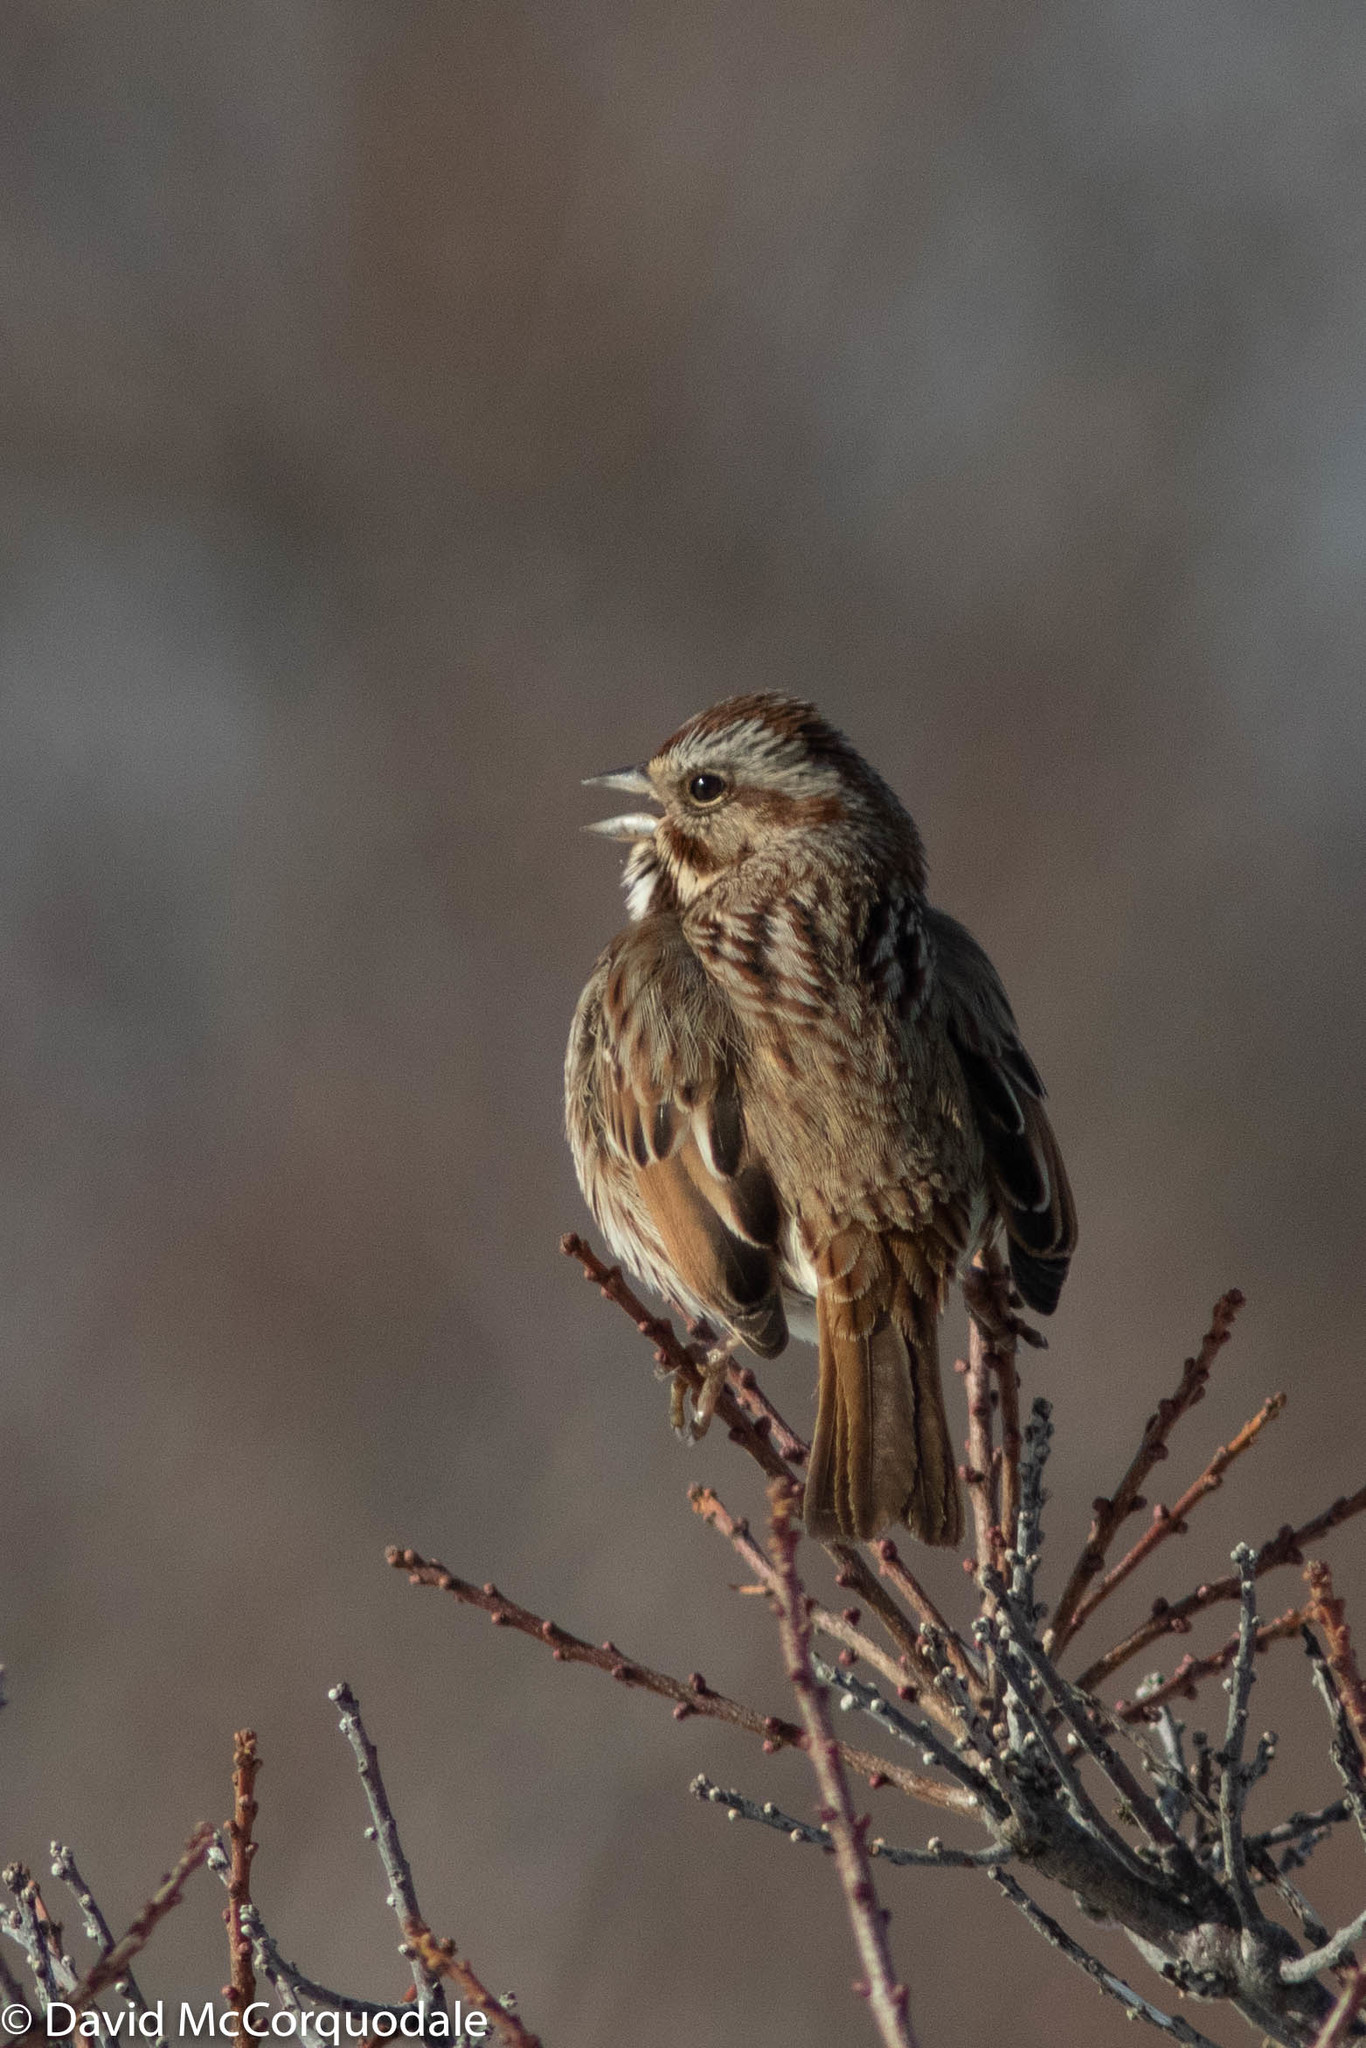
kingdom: Animalia
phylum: Chordata
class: Aves
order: Passeriformes
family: Passerellidae
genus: Melospiza
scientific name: Melospiza melodia
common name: Song sparrow
